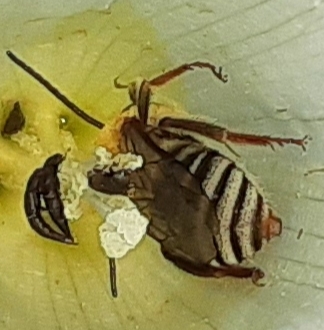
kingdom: Animalia
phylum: Arthropoda
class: Insecta
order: Hymenoptera
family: Apidae
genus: Peponapis
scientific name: Peponapis pruinosa
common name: Pruinose squash bee
